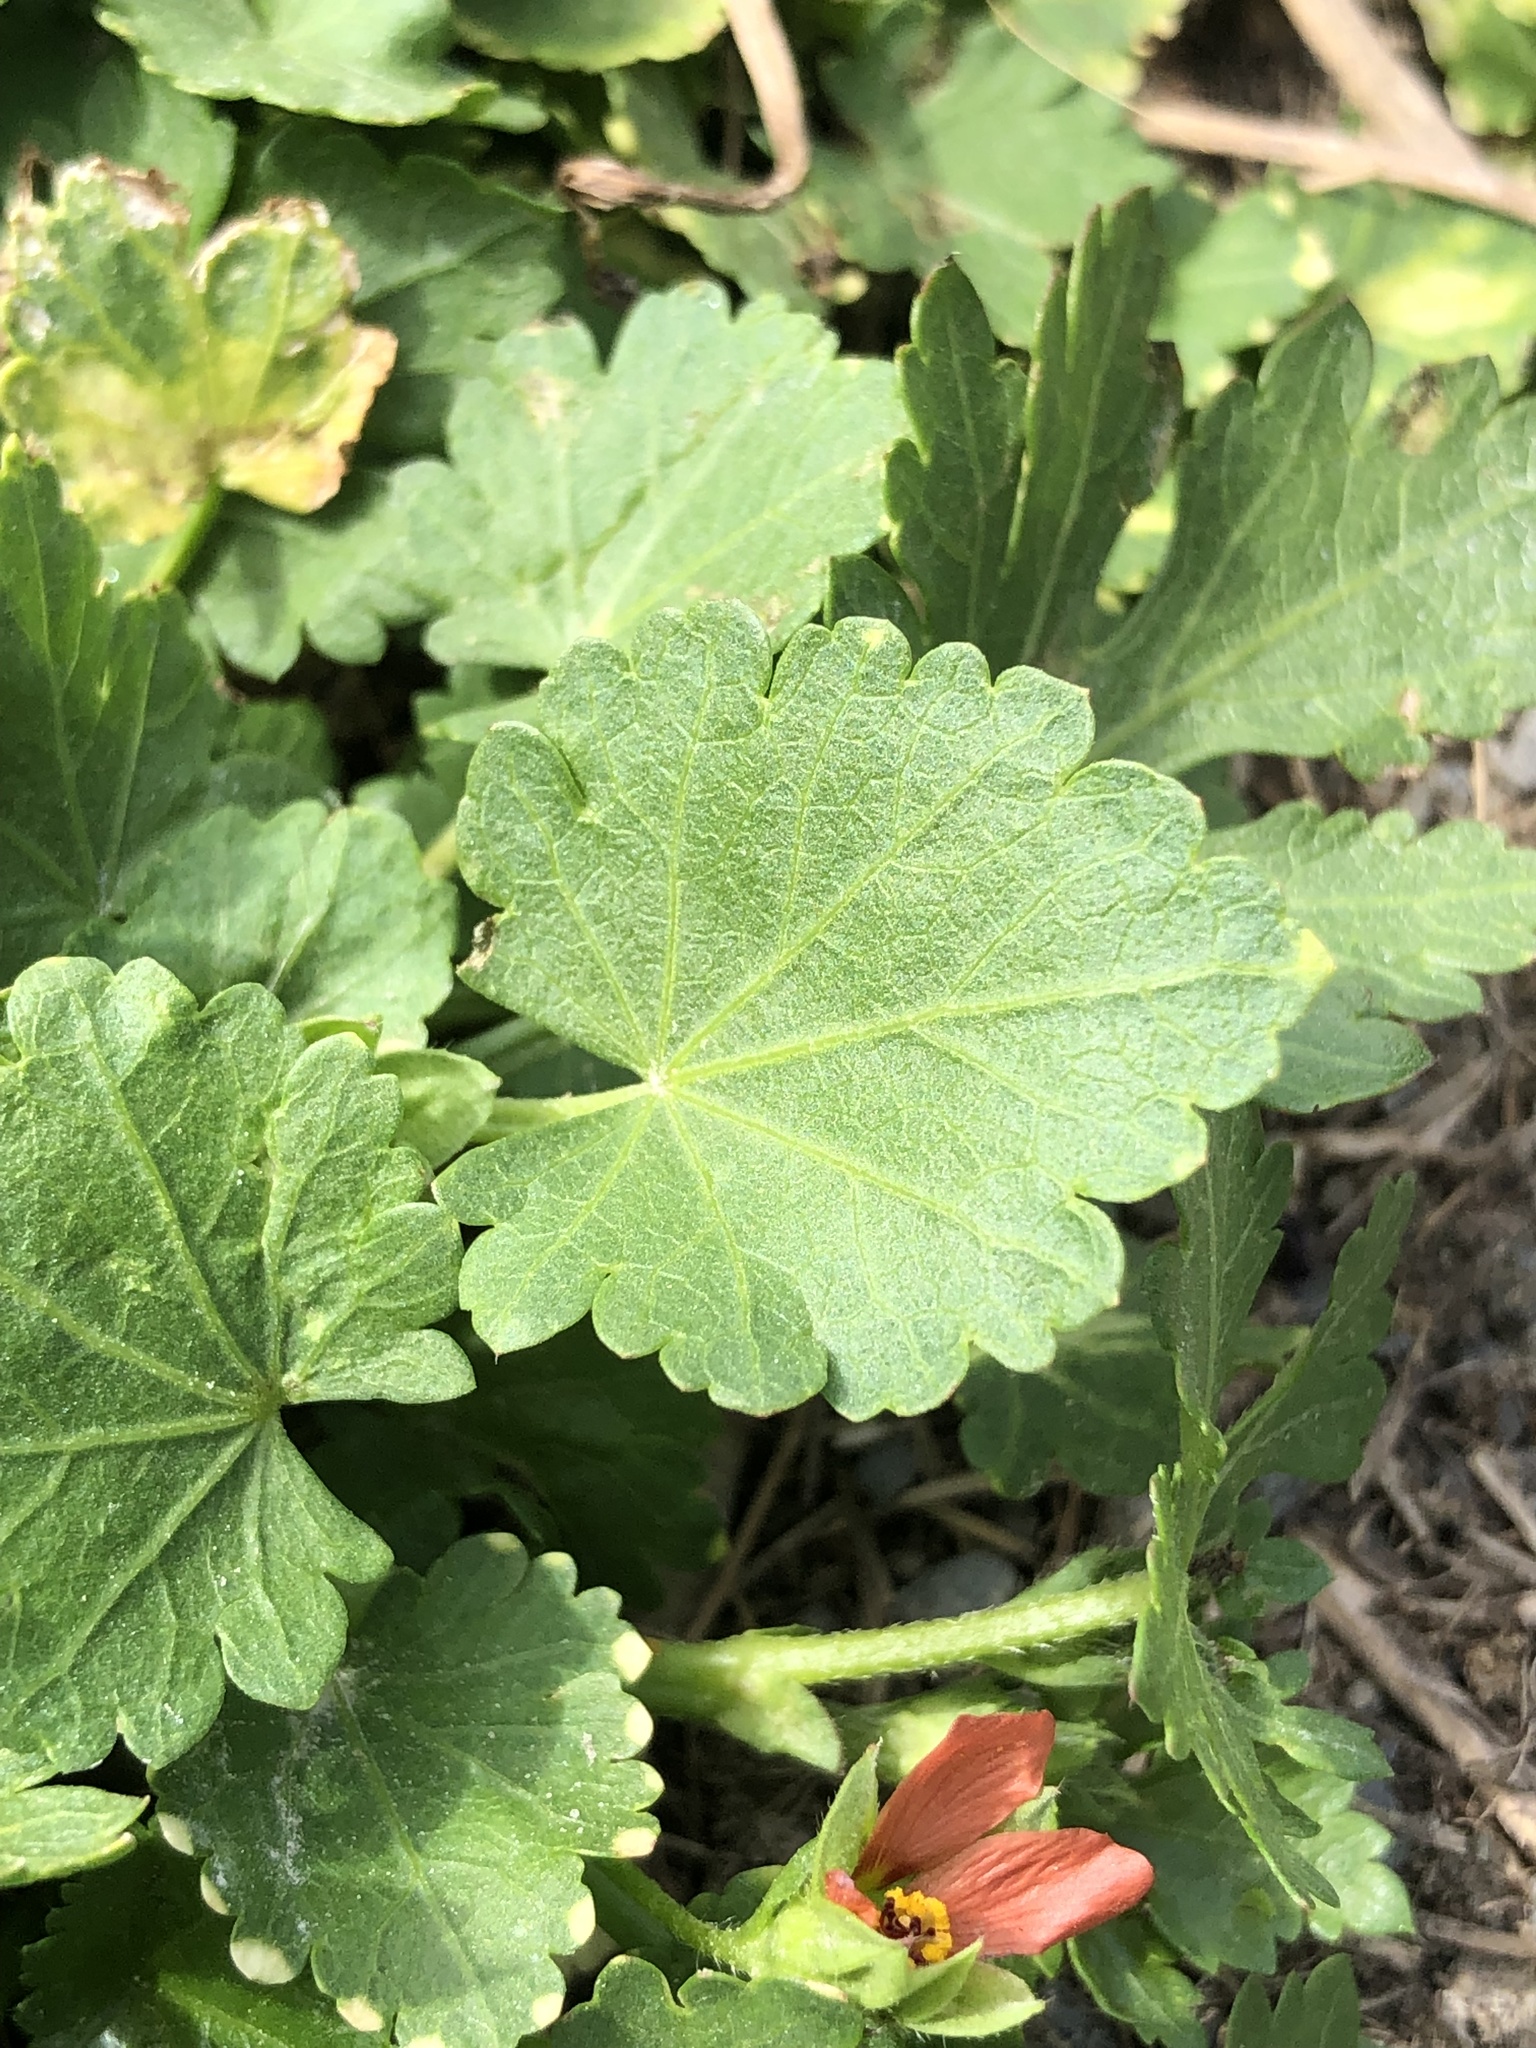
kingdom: Plantae
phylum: Tracheophyta
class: Magnoliopsida
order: Malvales
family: Malvaceae
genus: Modiola
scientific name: Modiola caroliniana
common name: Carolina bristlemallow
